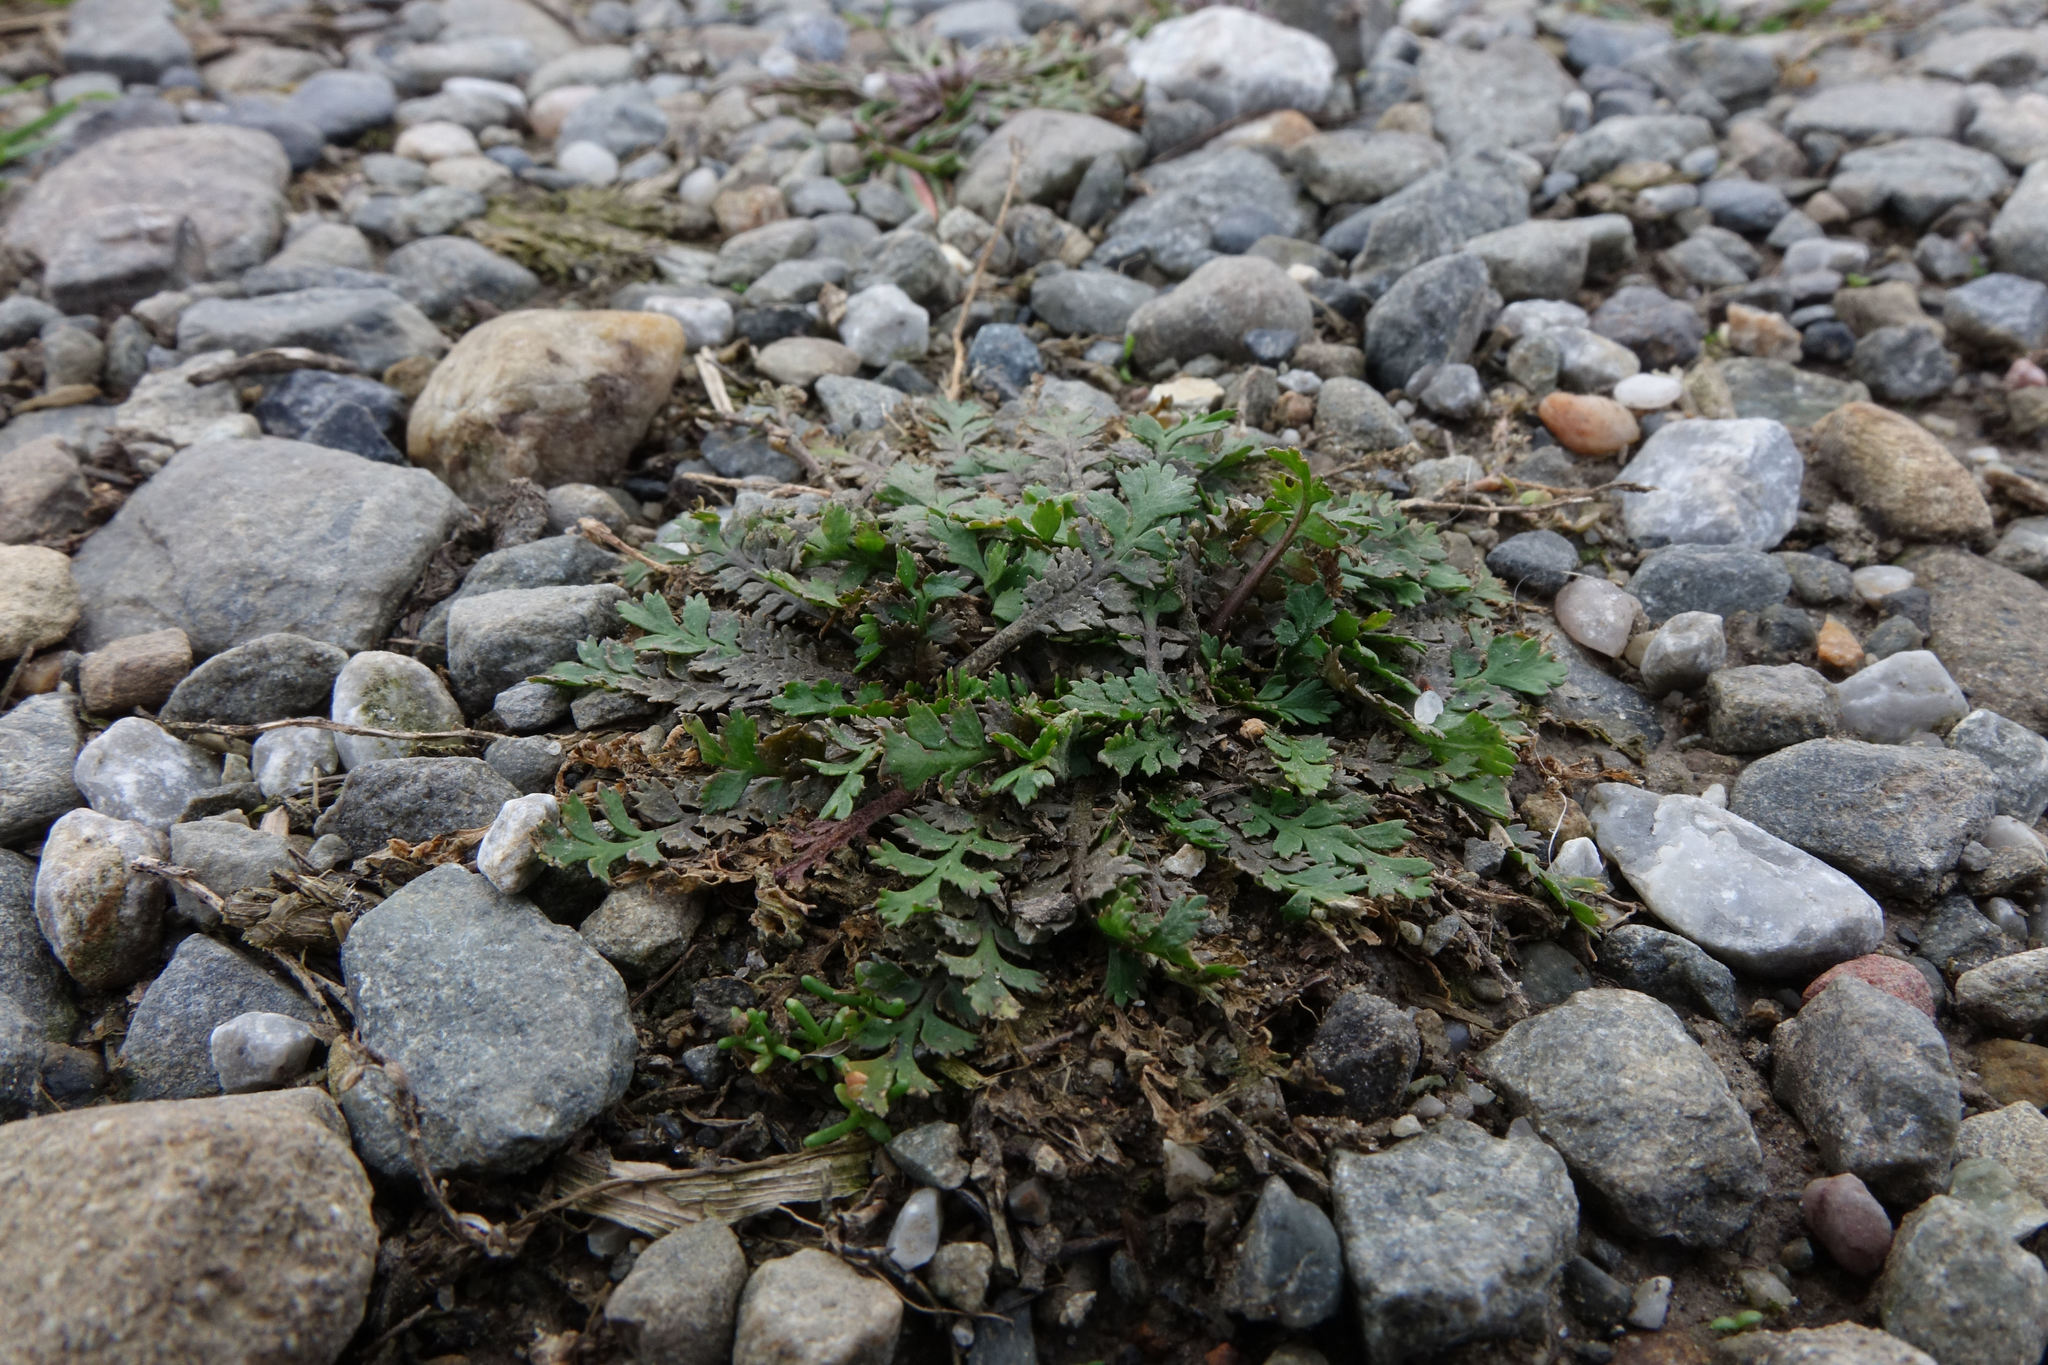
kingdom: Plantae
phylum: Tracheophyta
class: Magnoliopsida
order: Brassicales
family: Brassicaceae
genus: Lepidium
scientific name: Lepidium tenuicaule
